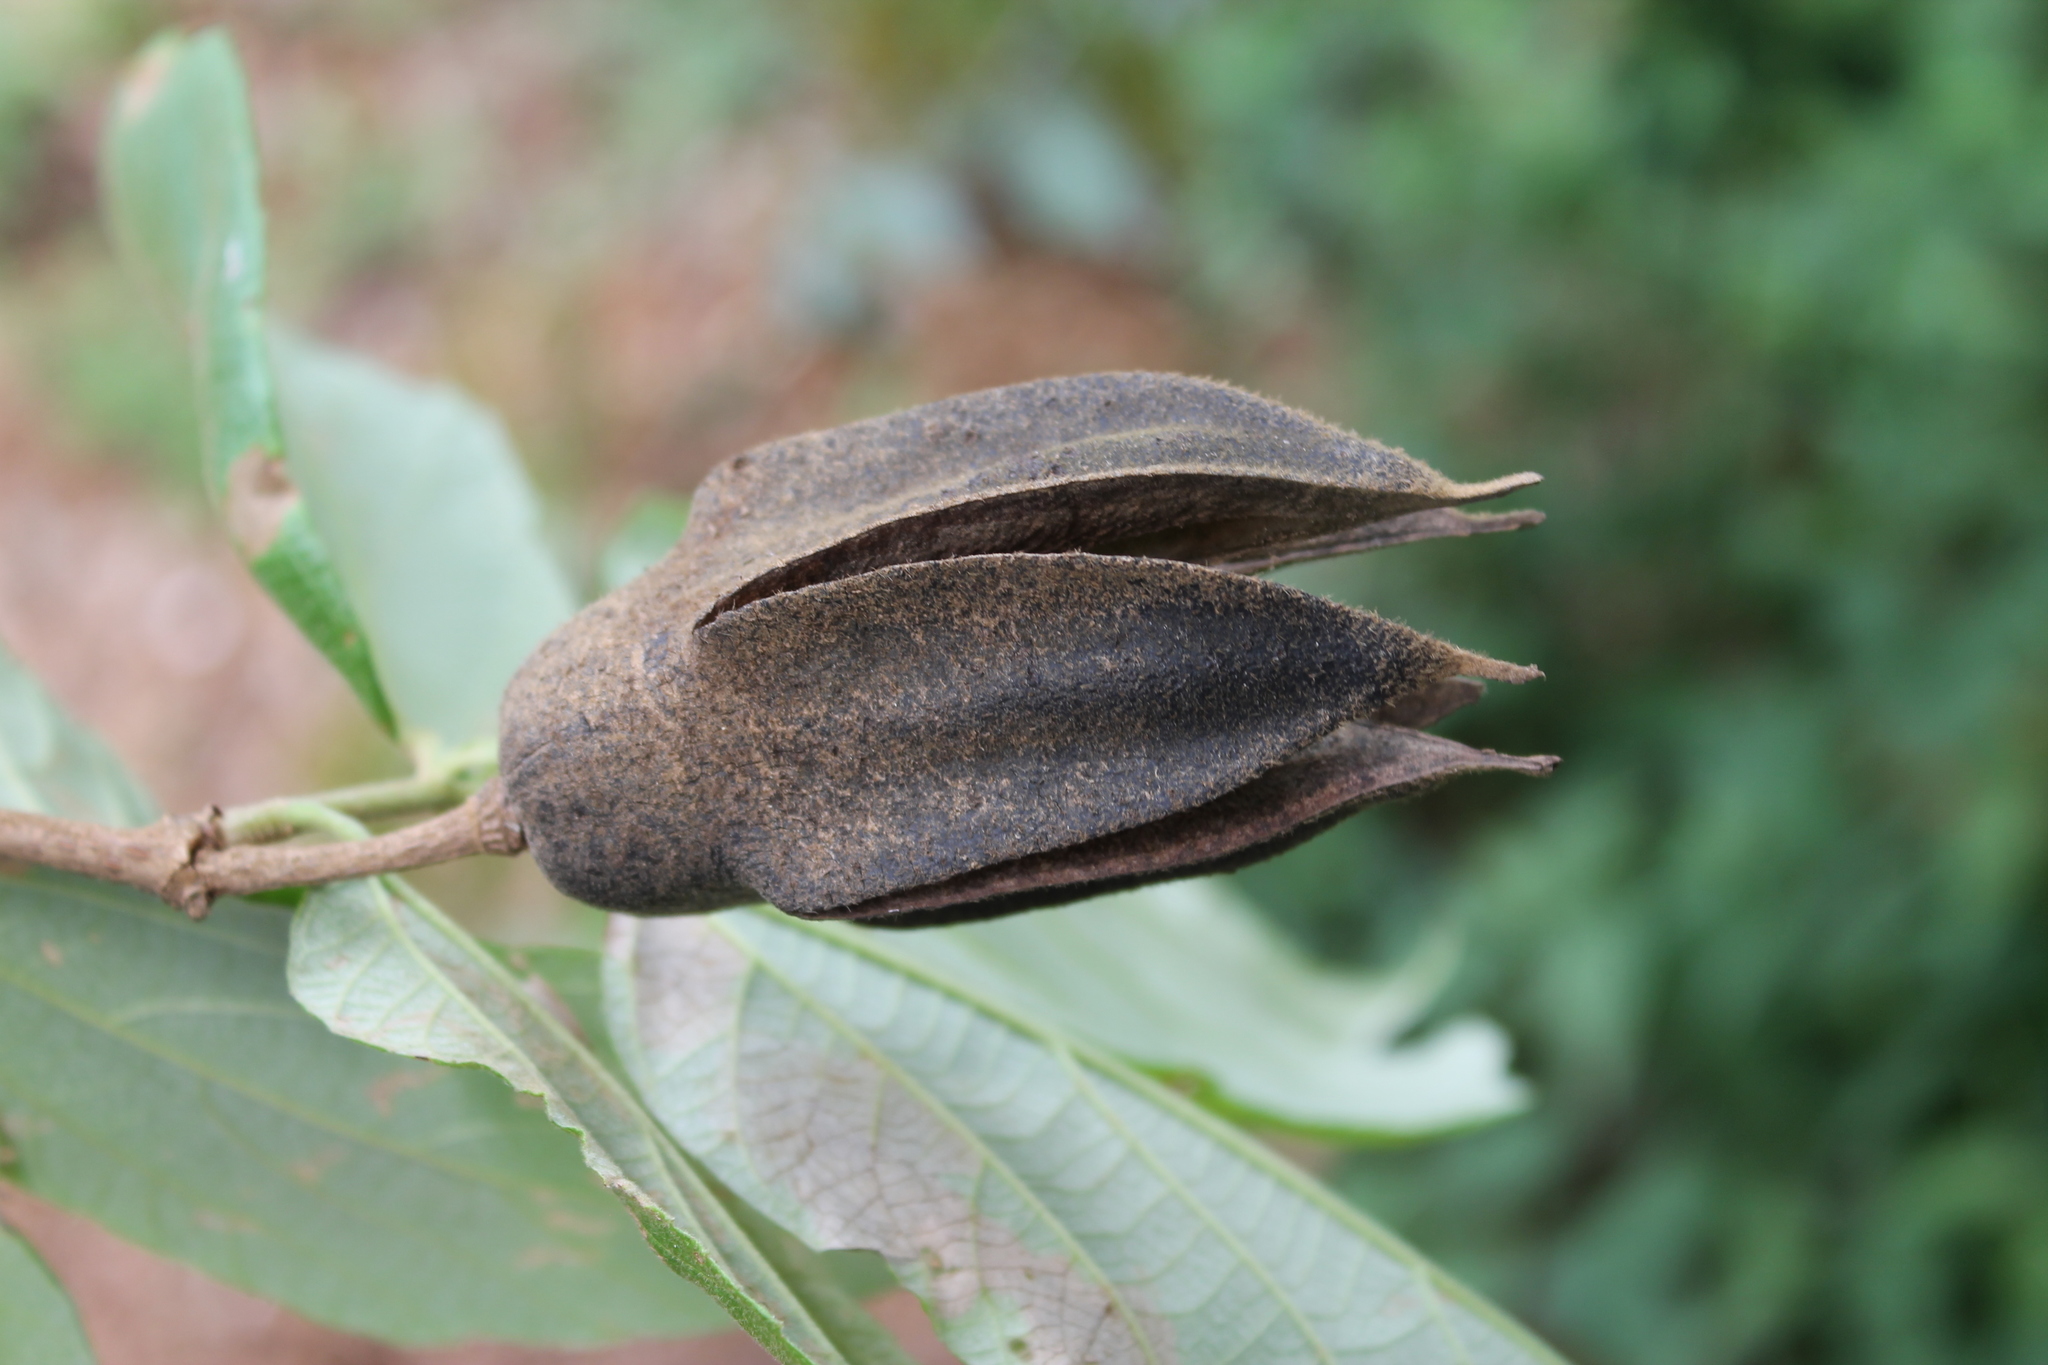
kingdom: Plantae
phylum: Tracheophyta
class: Magnoliopsida
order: Malvales
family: Malvaceae
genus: Luehea
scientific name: Luehea candida
